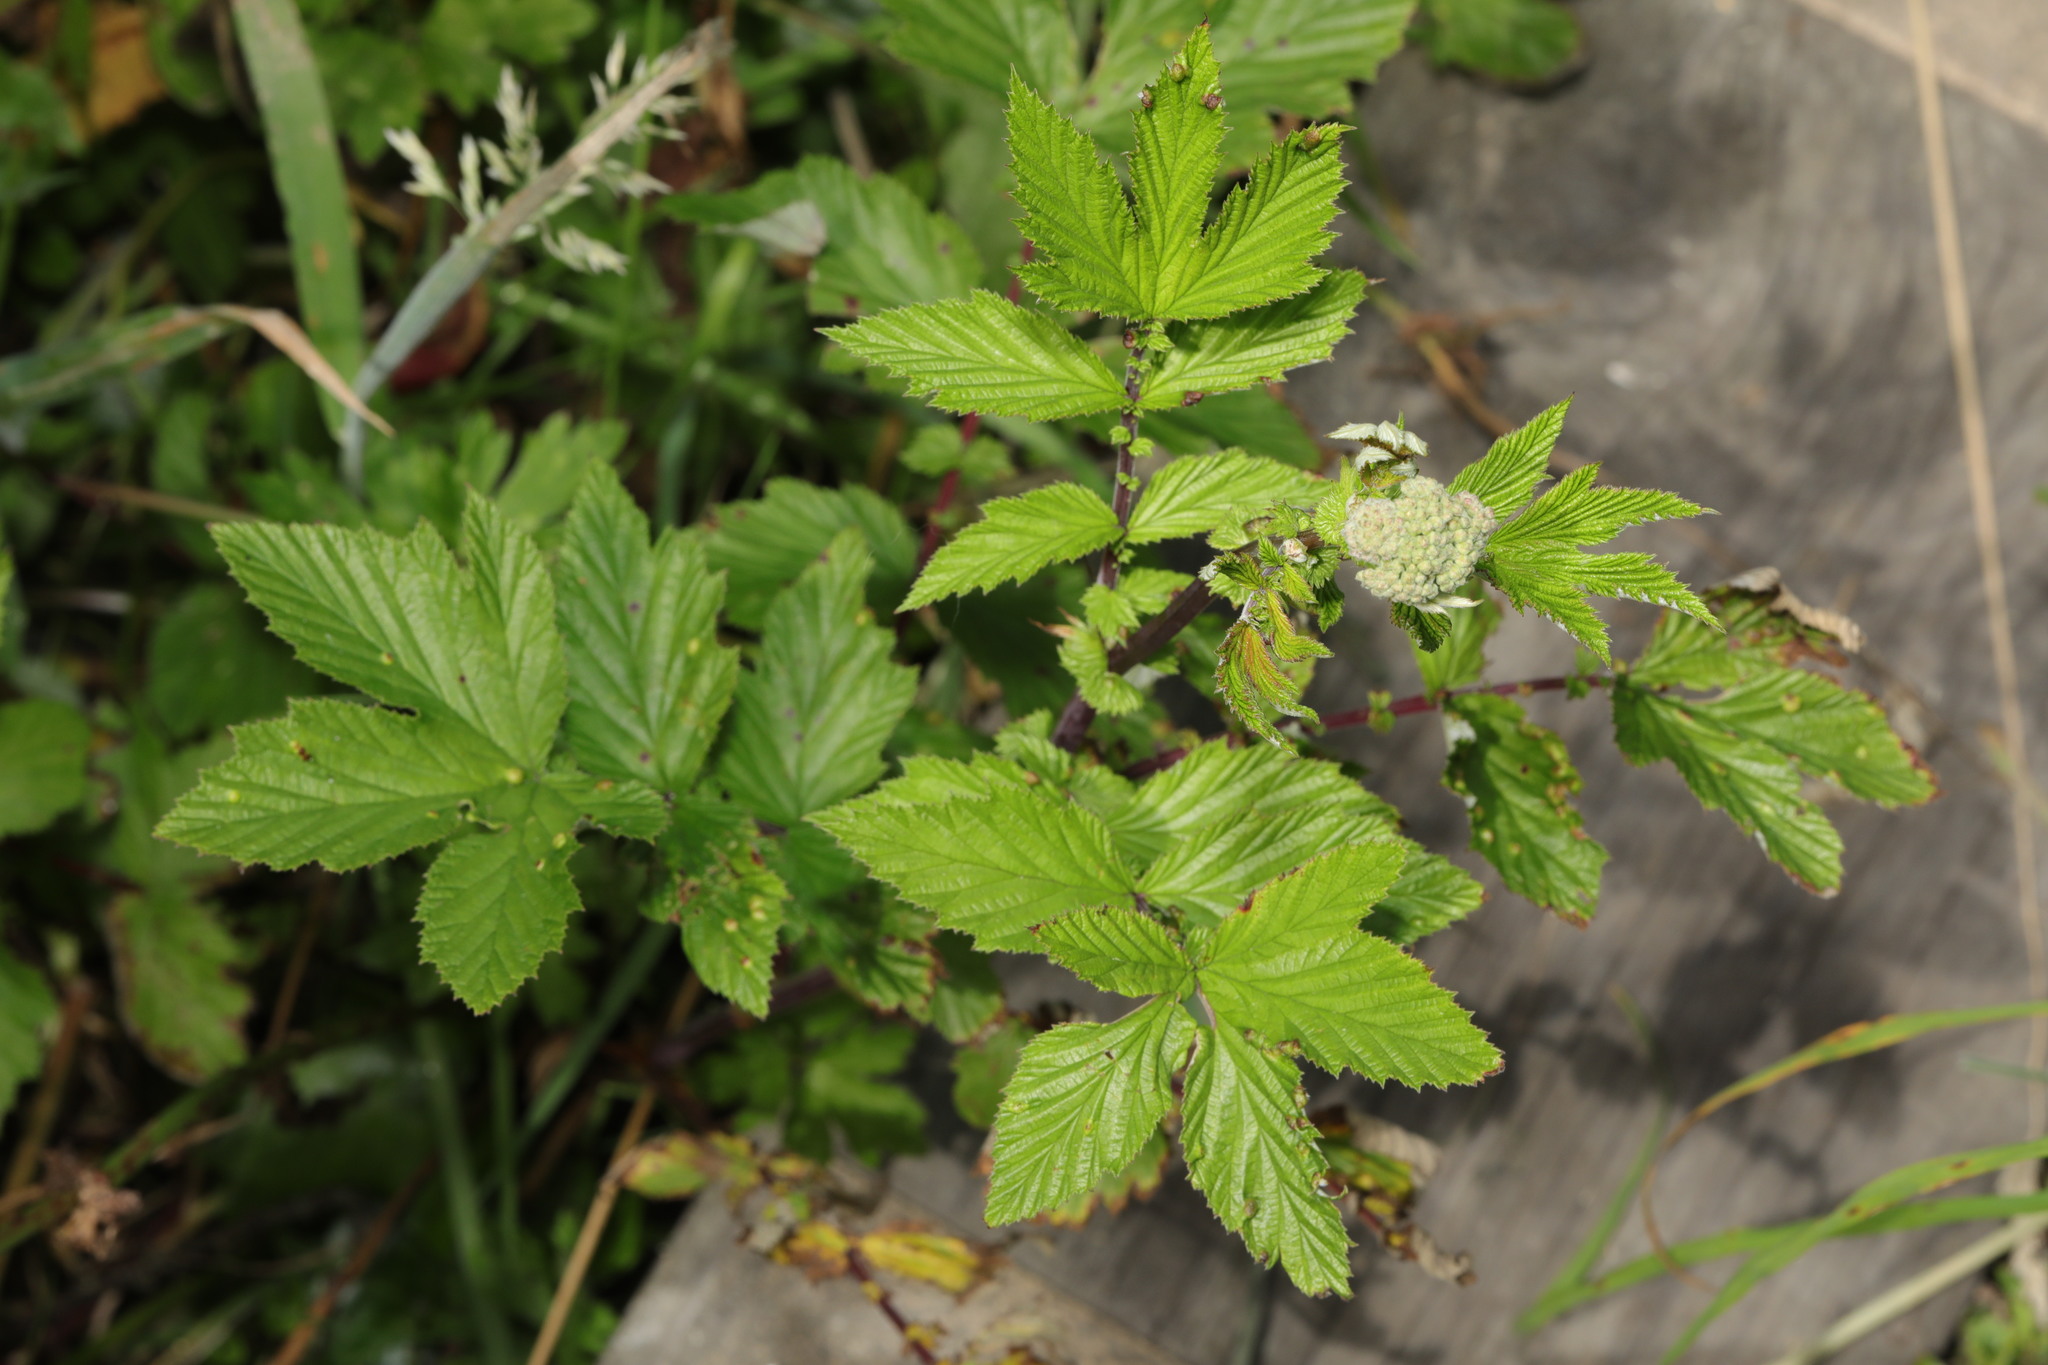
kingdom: Plantae
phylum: Tracheophyta
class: Magnoliopsida
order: Rosales
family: Rosaceae
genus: Filipendula
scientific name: Filipendula ulmaria
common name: Meadowsweet
